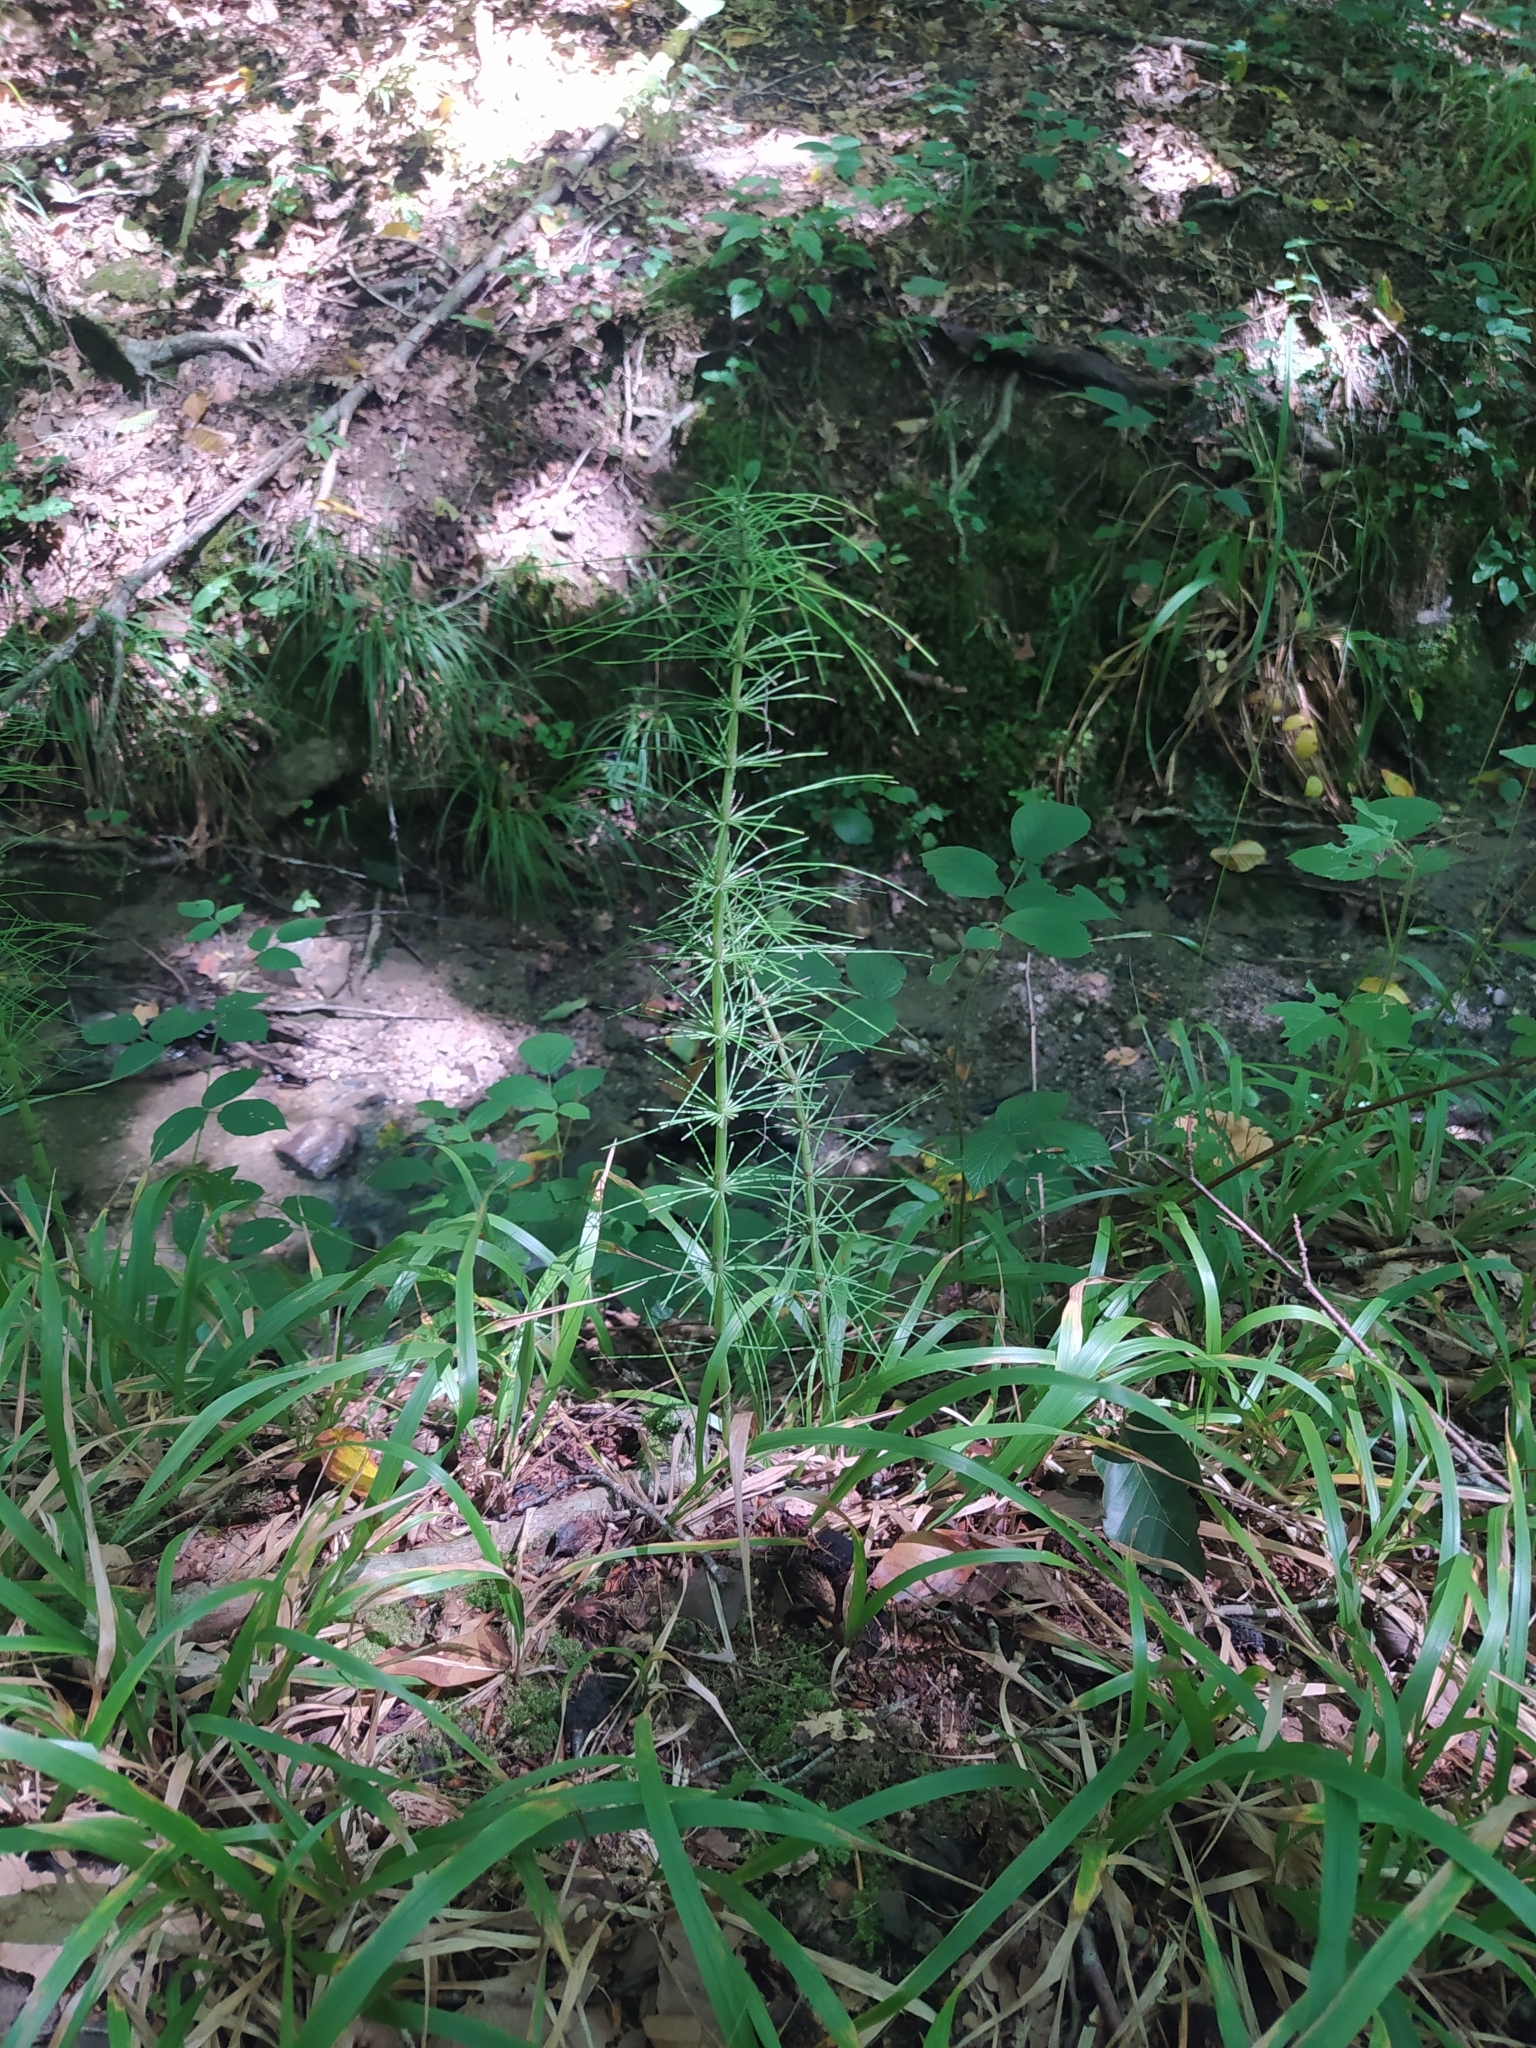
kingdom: Plantae
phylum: Tracheophyta
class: Polypodiopsida
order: Equisetales
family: Equisetaceae
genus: Equisetum
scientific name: Equisetum telmateia
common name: Great horsetail
